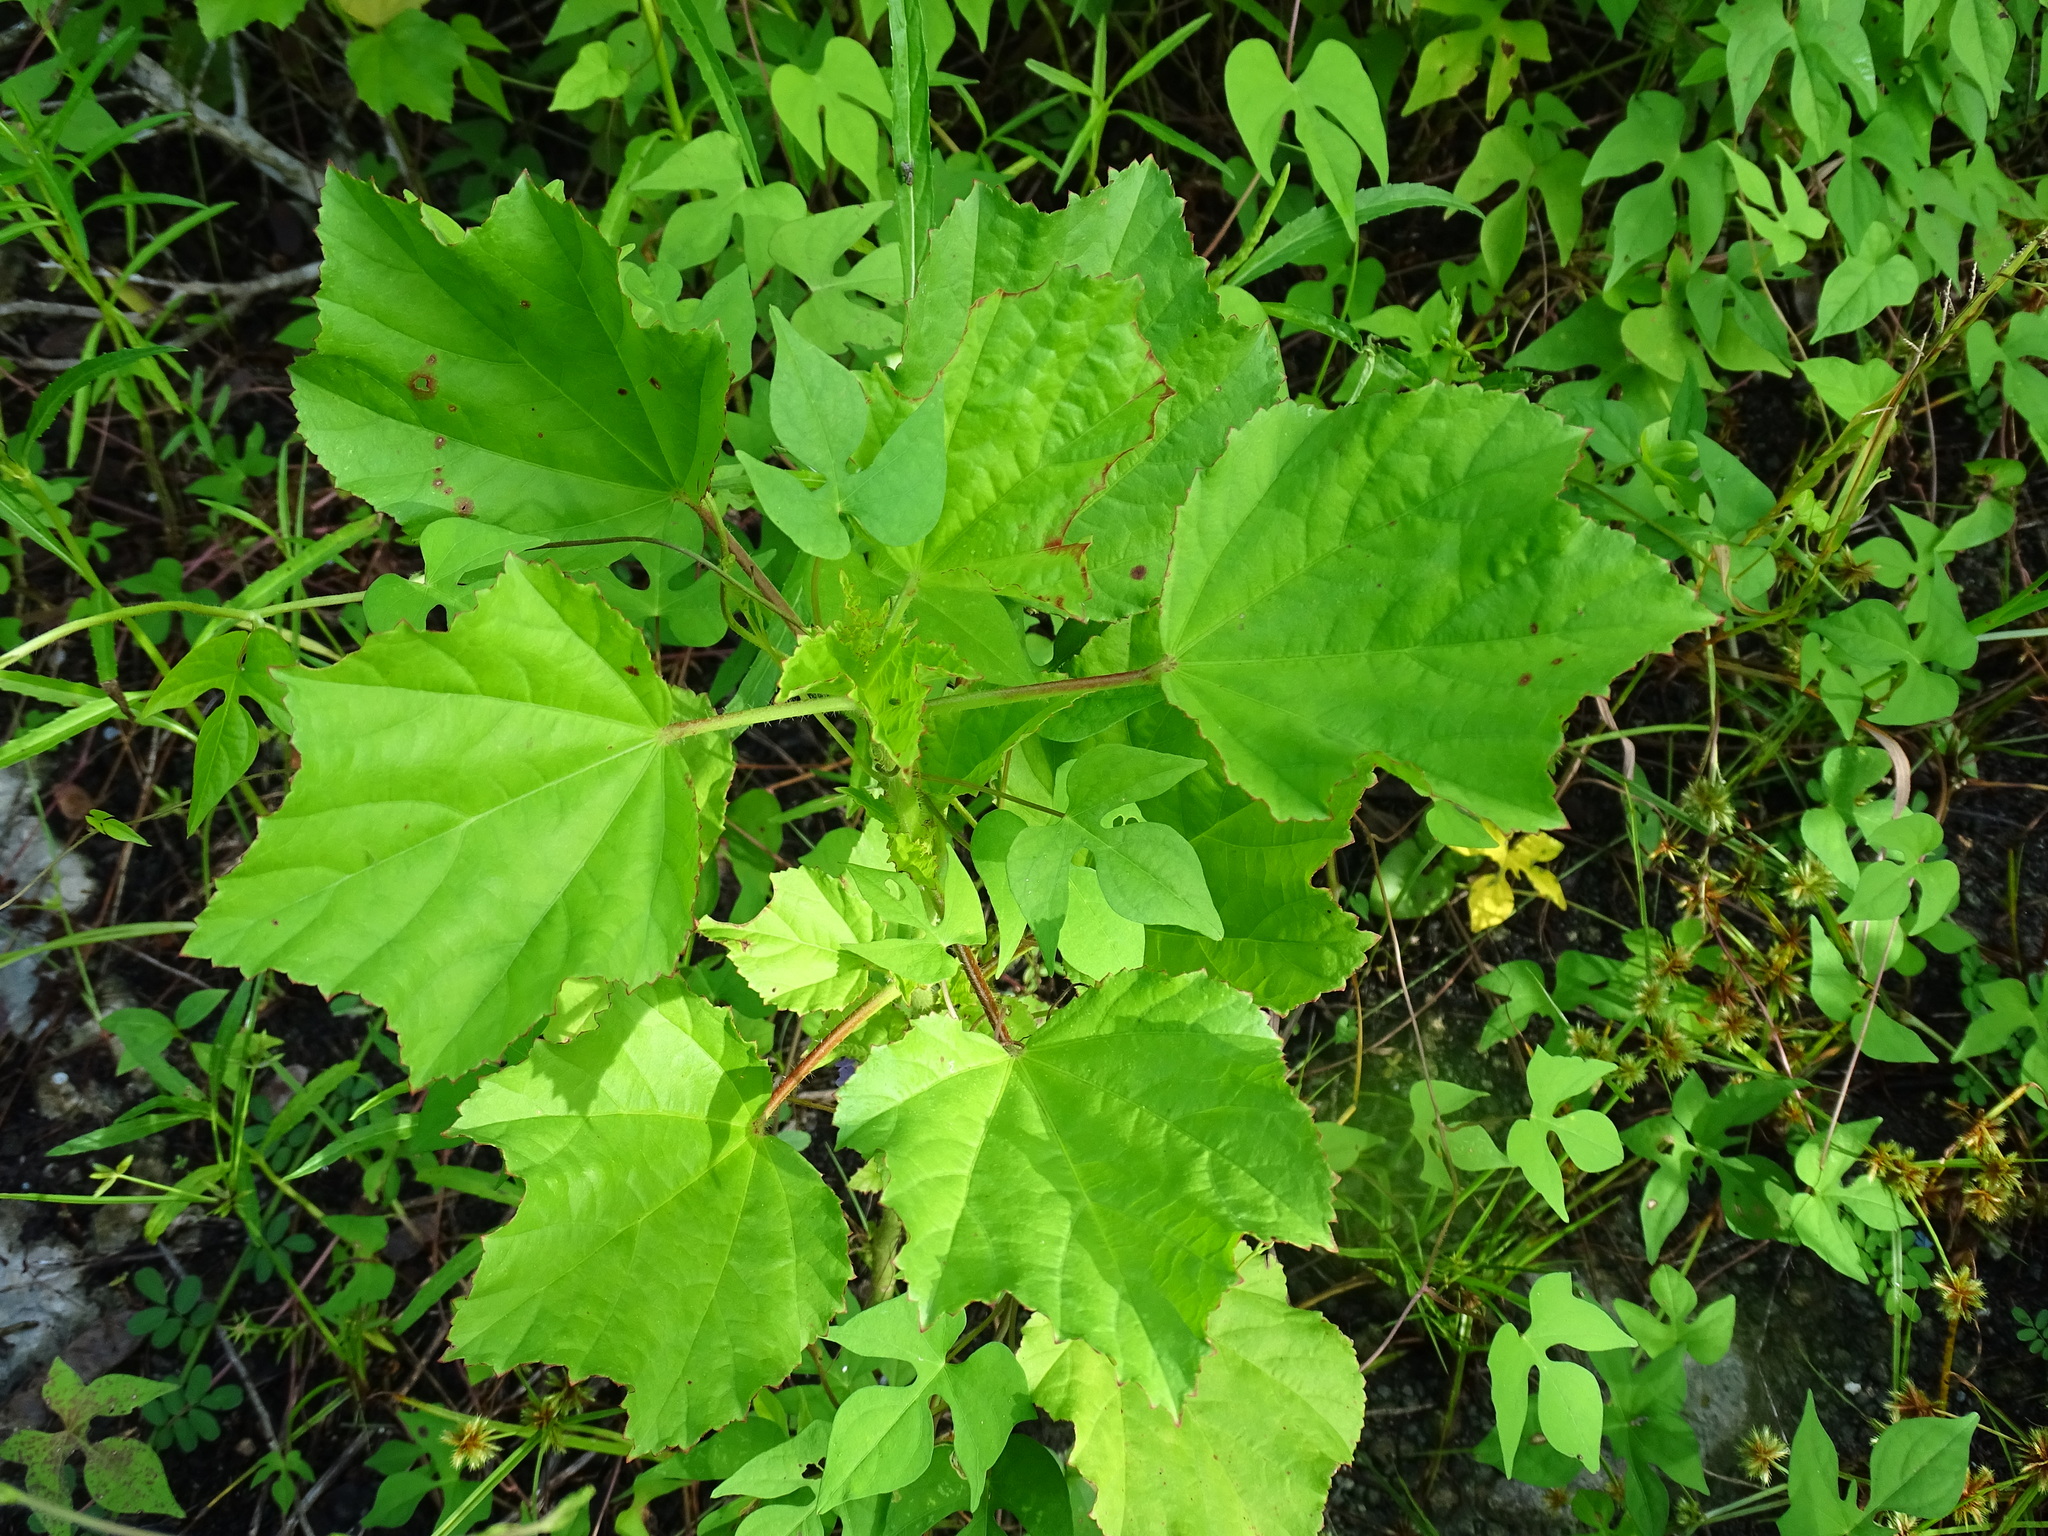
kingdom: Plantae
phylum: Tracheophyta
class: Magnoliopsida
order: Malvales
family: Malvaceae
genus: Malachra
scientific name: Malachra fasciata
